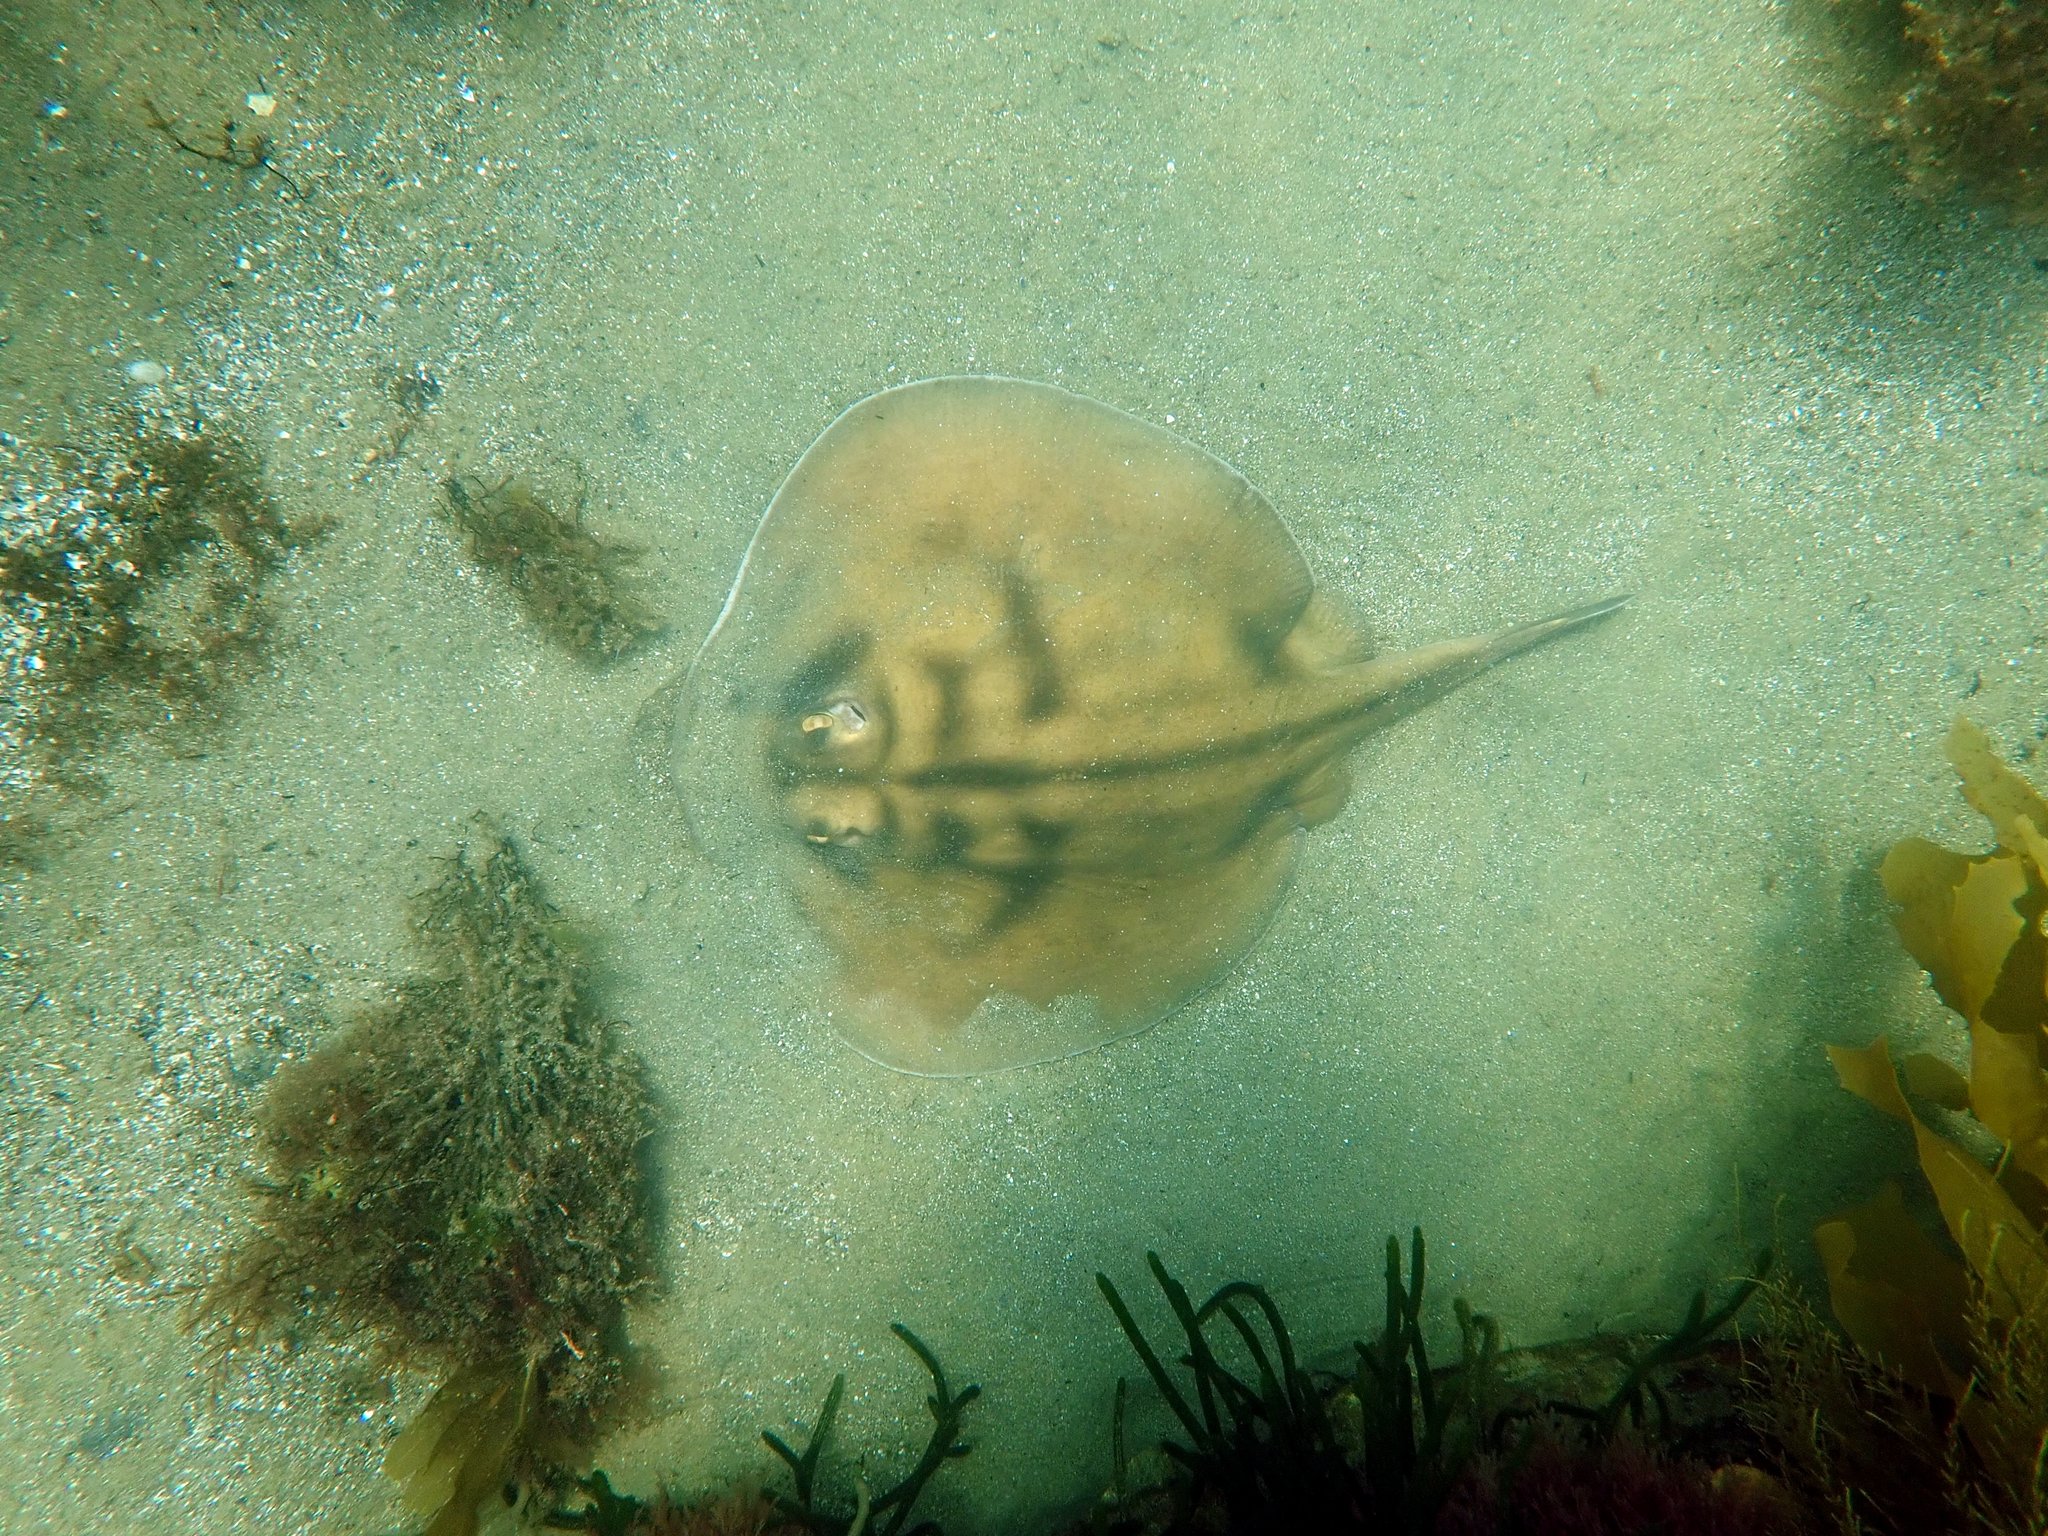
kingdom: Animalia
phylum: Chordata
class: Elasmobranchii
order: Myliobatiformes
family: Urolophidae
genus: Urolophus
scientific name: Urolophus cruciatus
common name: Banded stingaree
